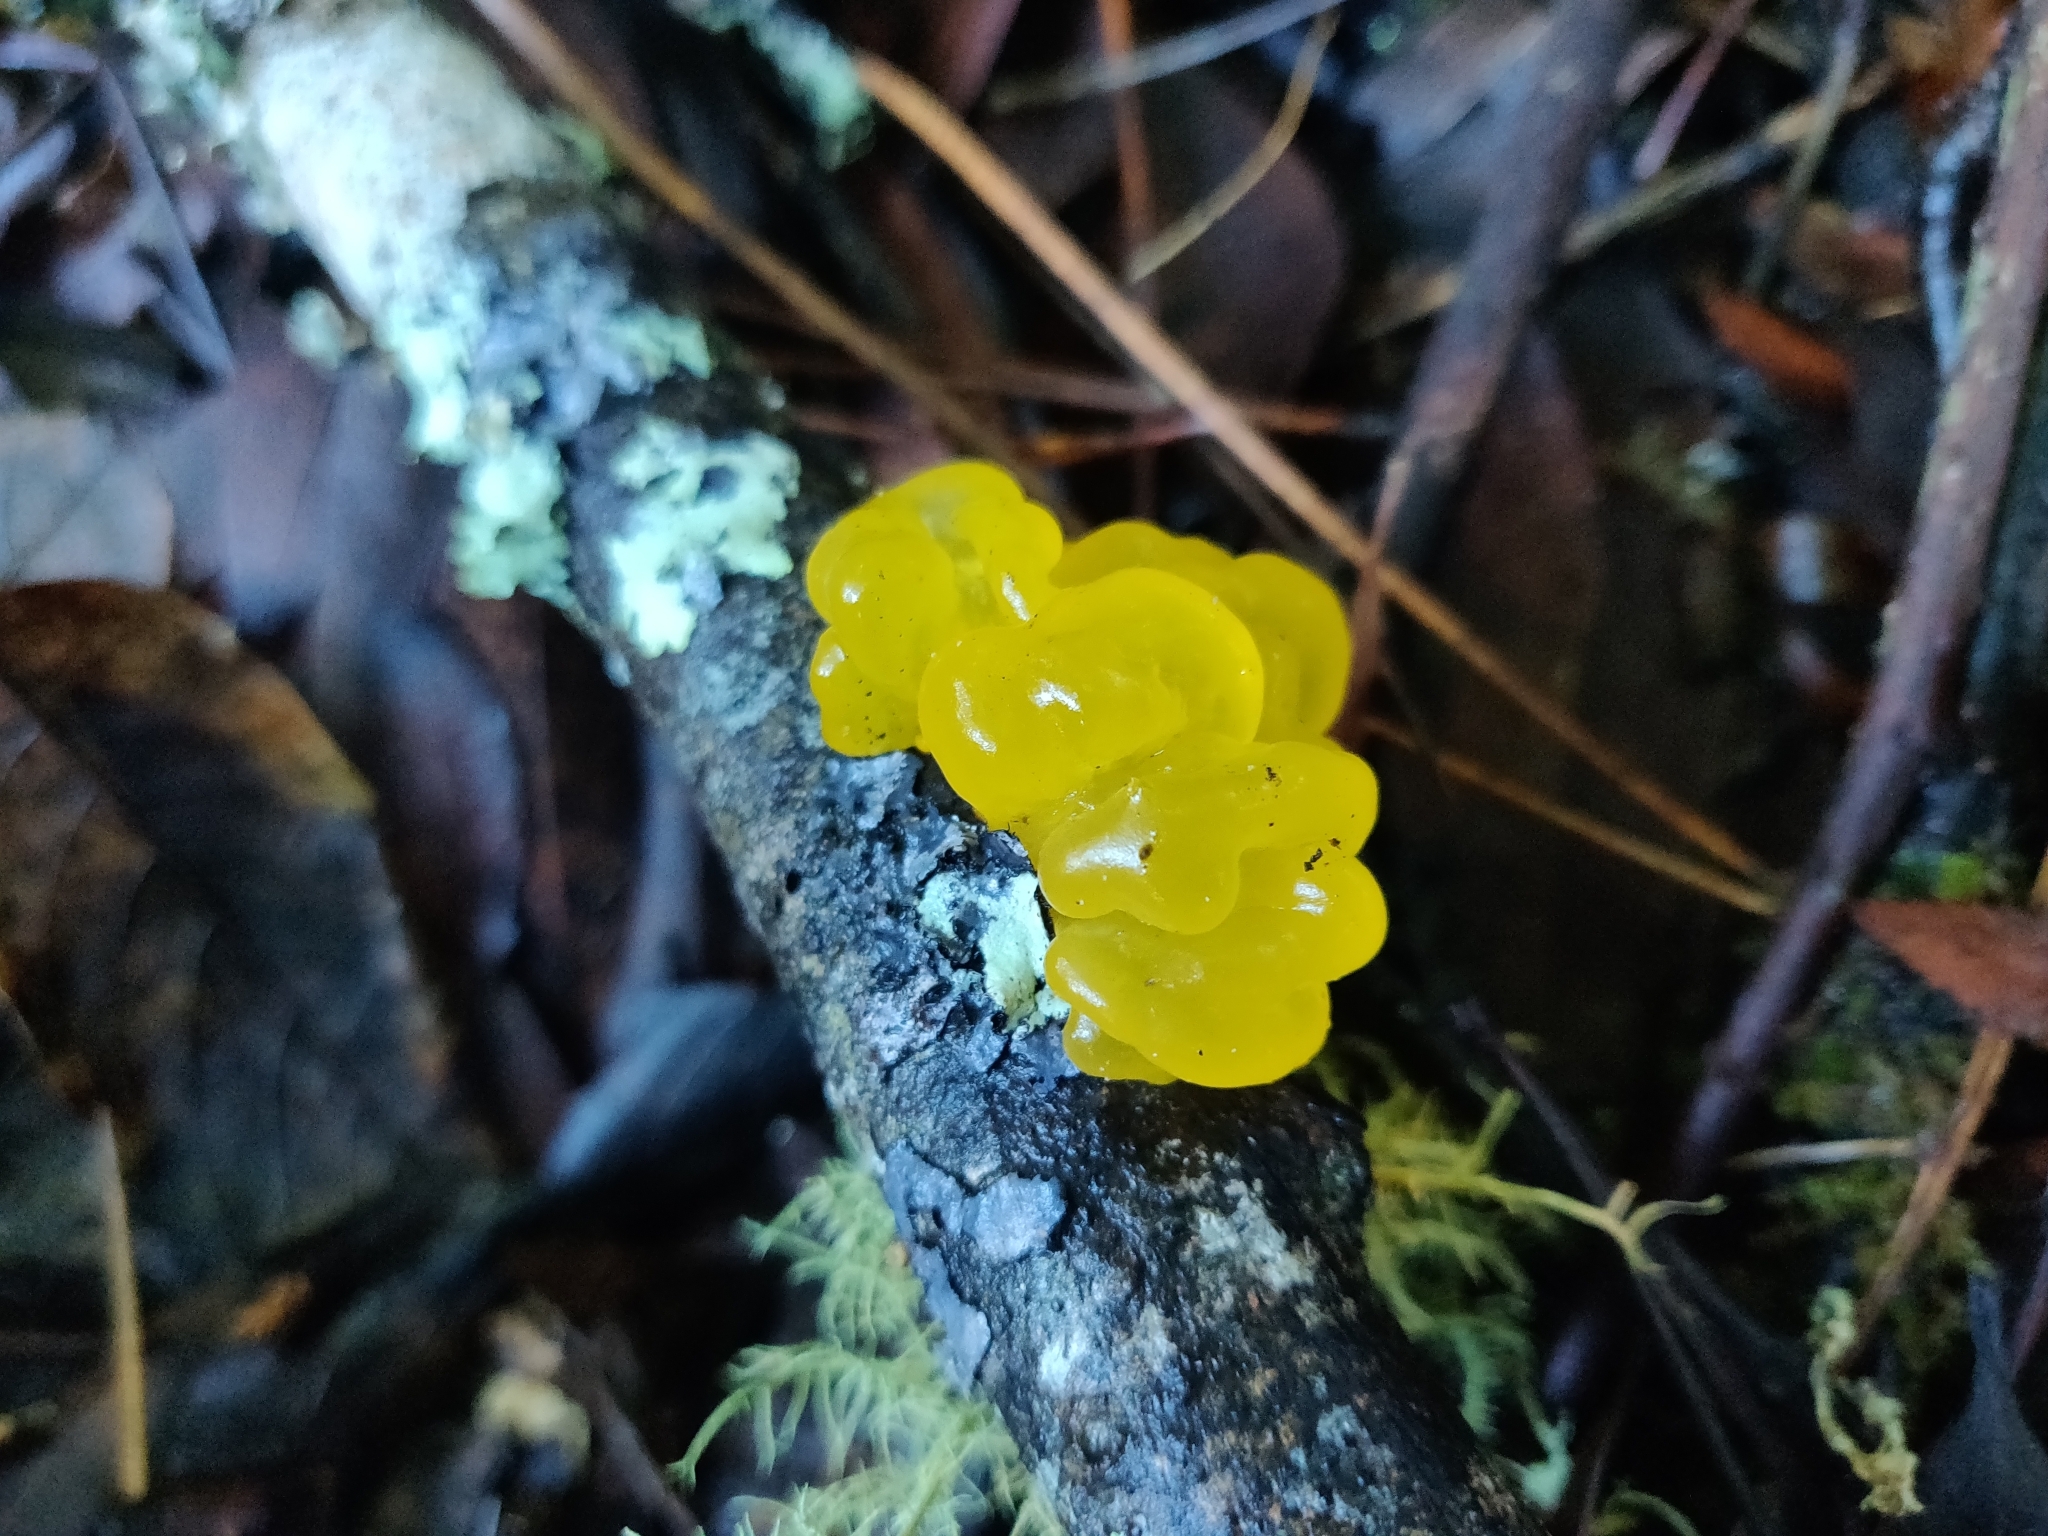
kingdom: Fungi
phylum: Basidiomycota
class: Tremellomycetes
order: Tremellales
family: Tremellaceae
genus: Tremella
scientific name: Tremella mesenterica
